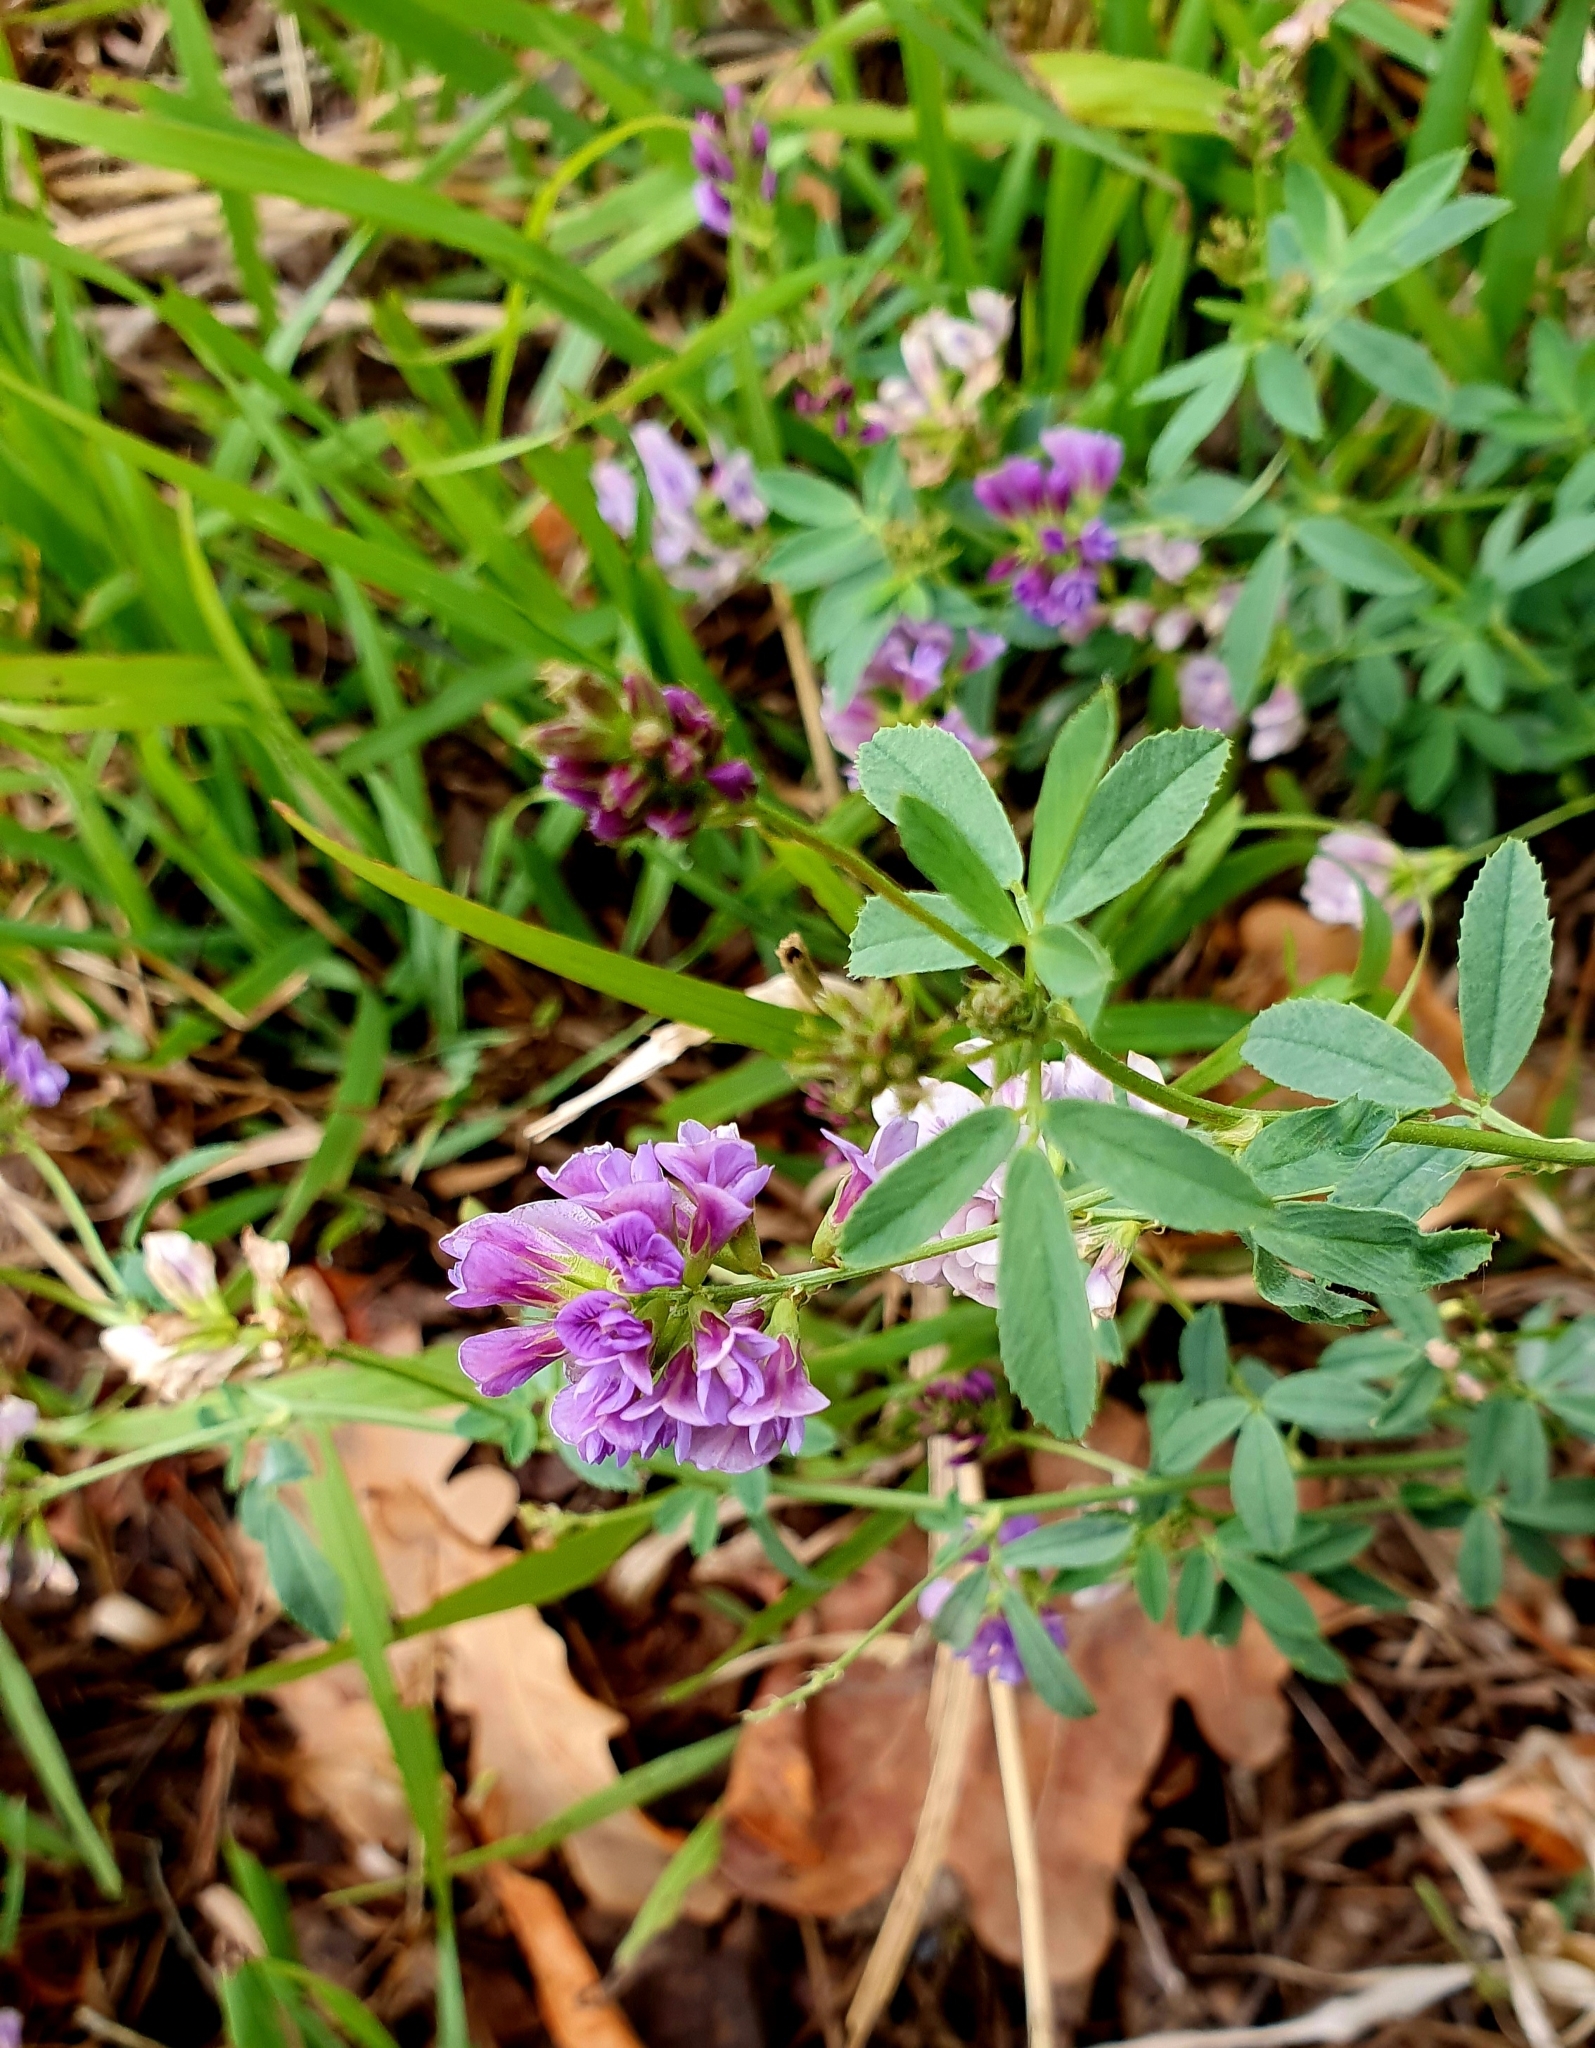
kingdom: Plantae
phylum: Tracheophyta
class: Magnoliopsida
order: Fabales
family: Fabaceae
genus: Medicago
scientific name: Medicago varia
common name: Sand lucerne
